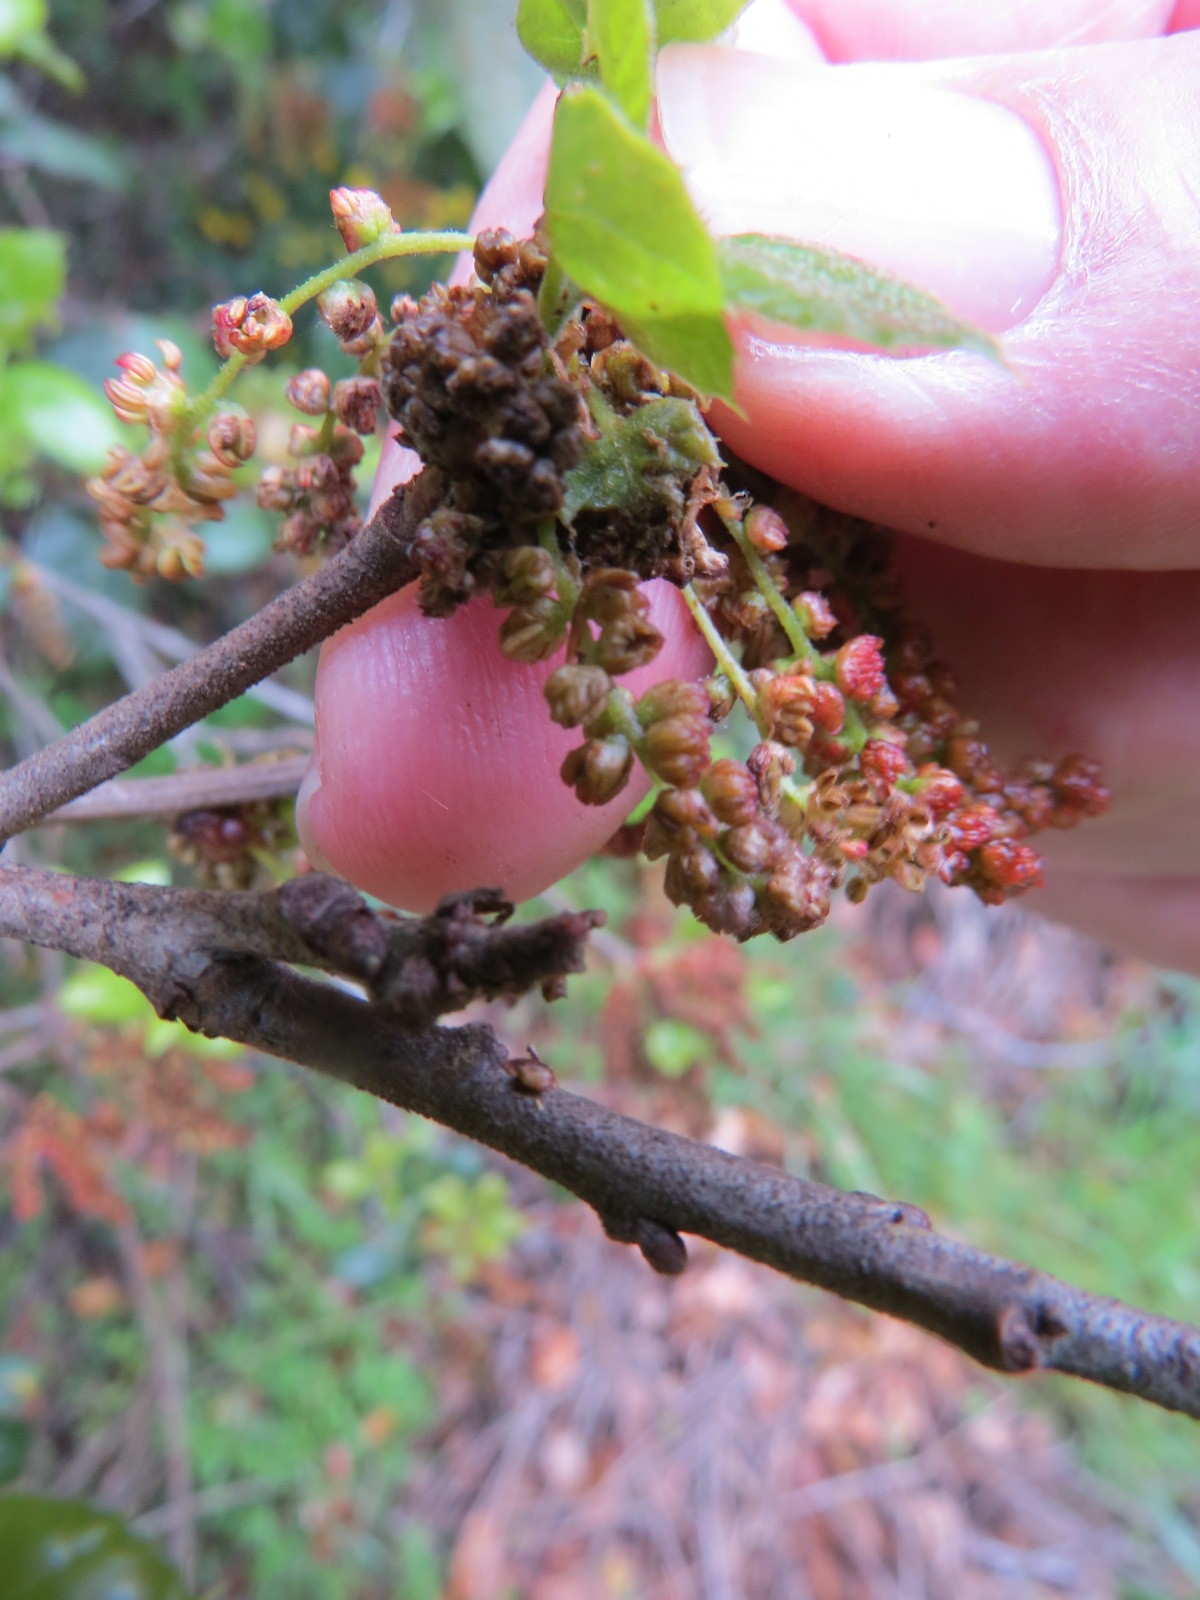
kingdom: Animalia
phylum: Arthropoda
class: Insecta
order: Hymenoptera
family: Cynipidae
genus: Dryocosmus
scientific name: Dryocosmus
